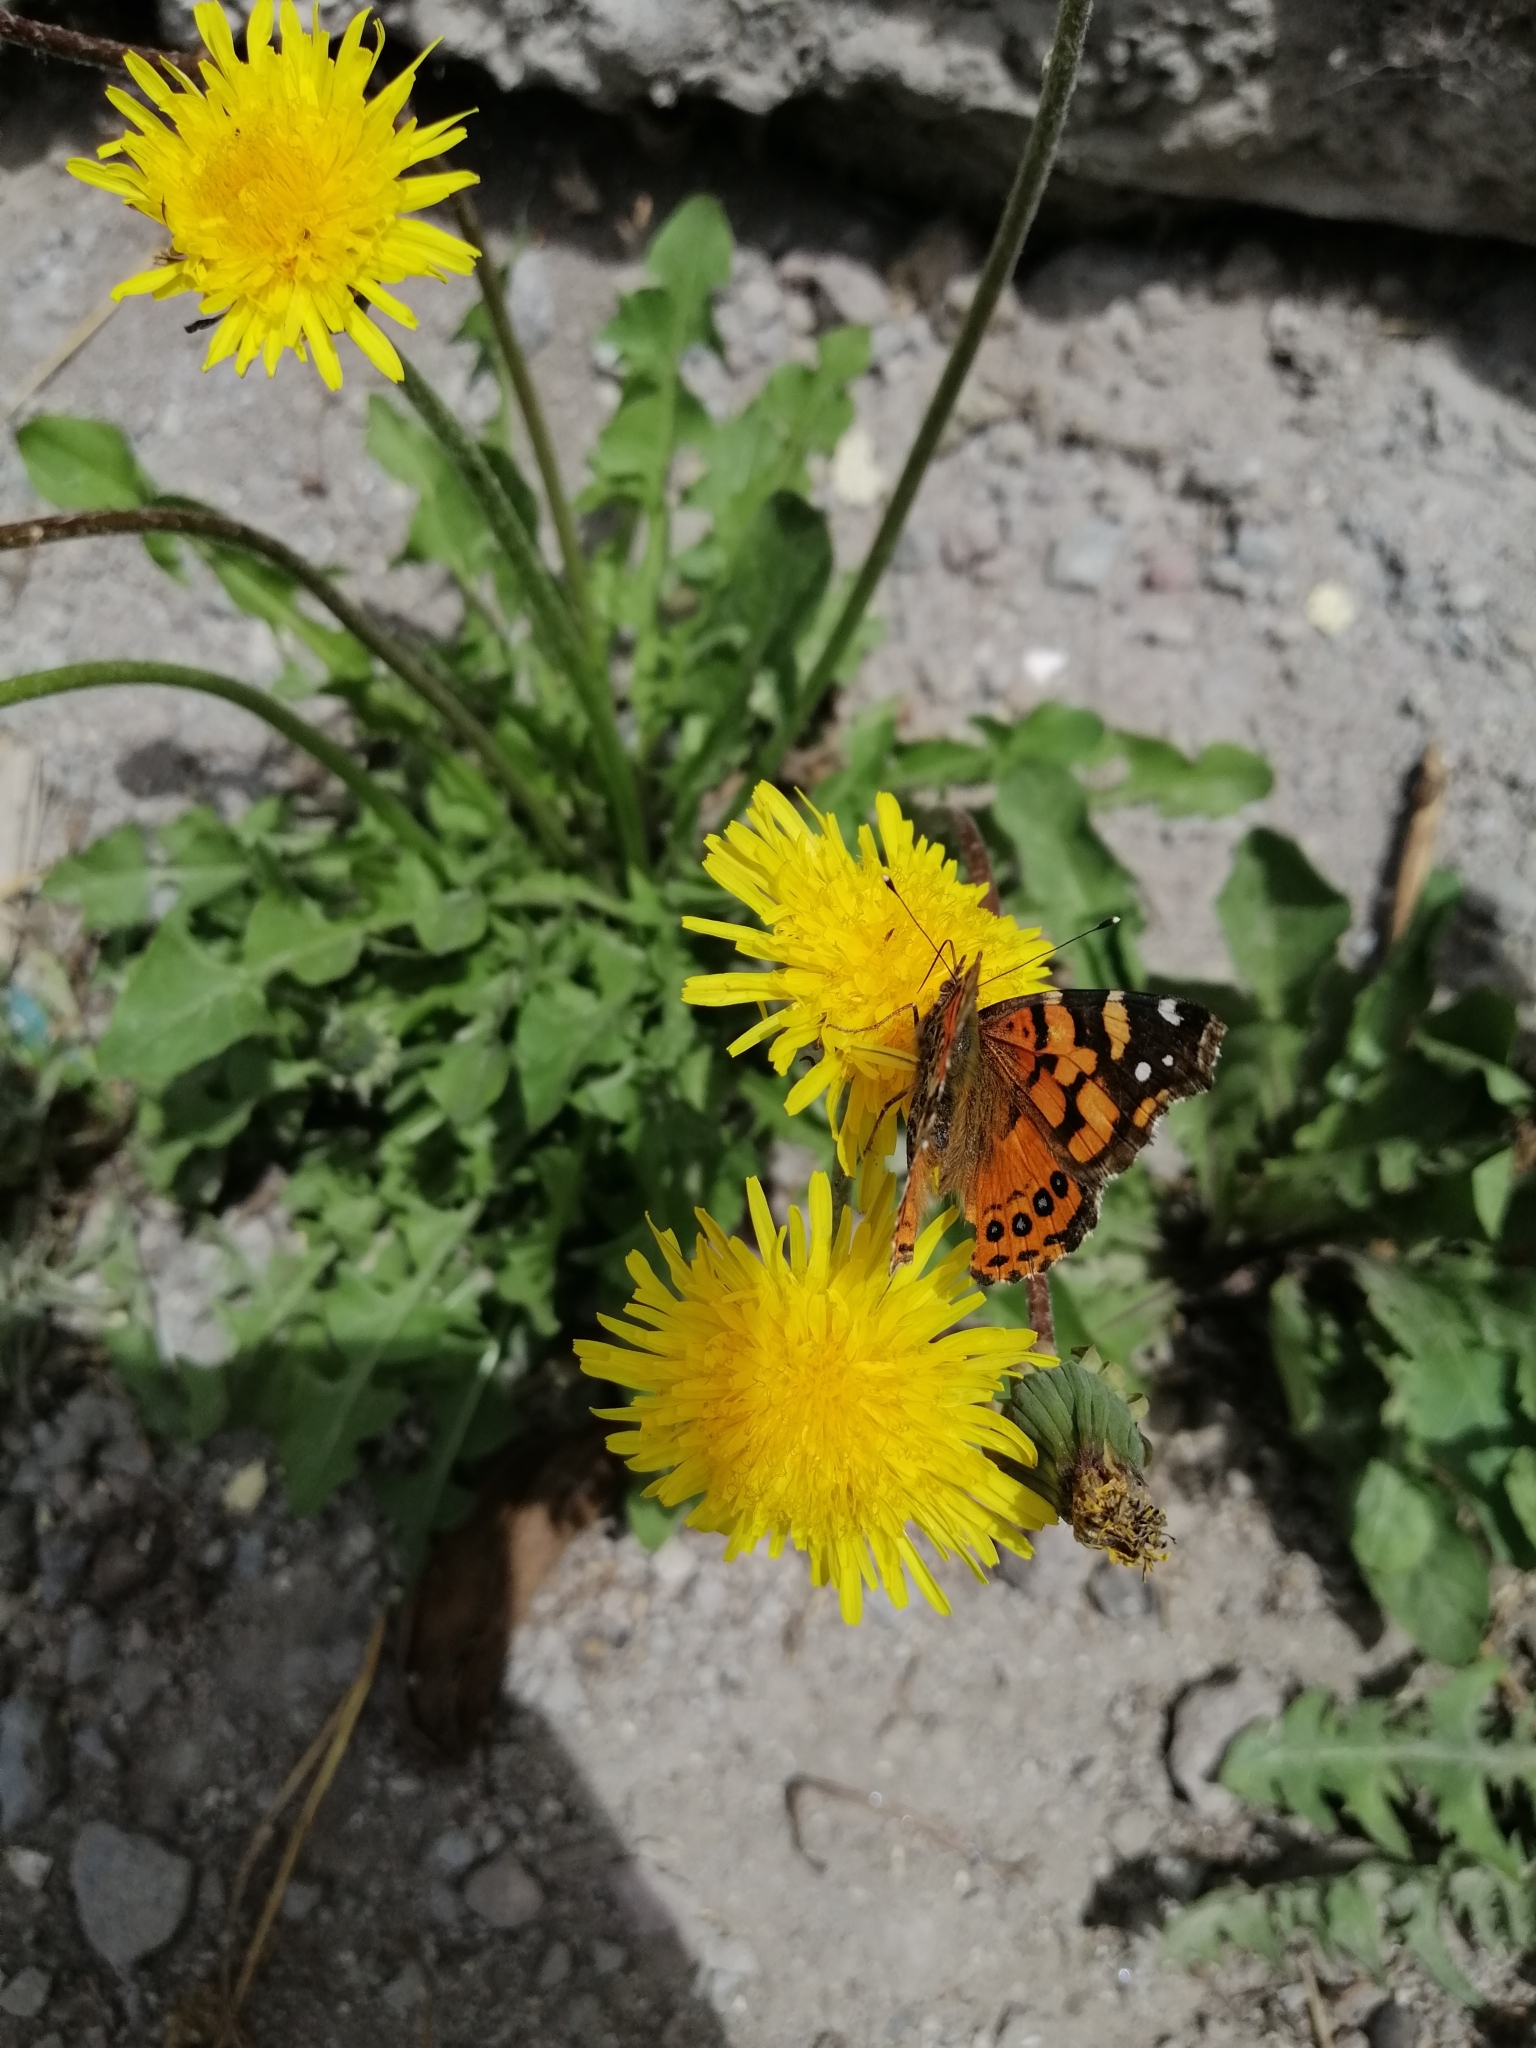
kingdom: Animalia
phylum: Arthropoda
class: Insecta
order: Lepidoptera
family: Nymphalidae
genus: Vanessa
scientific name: Vanessa carye
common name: Subtropical lady
